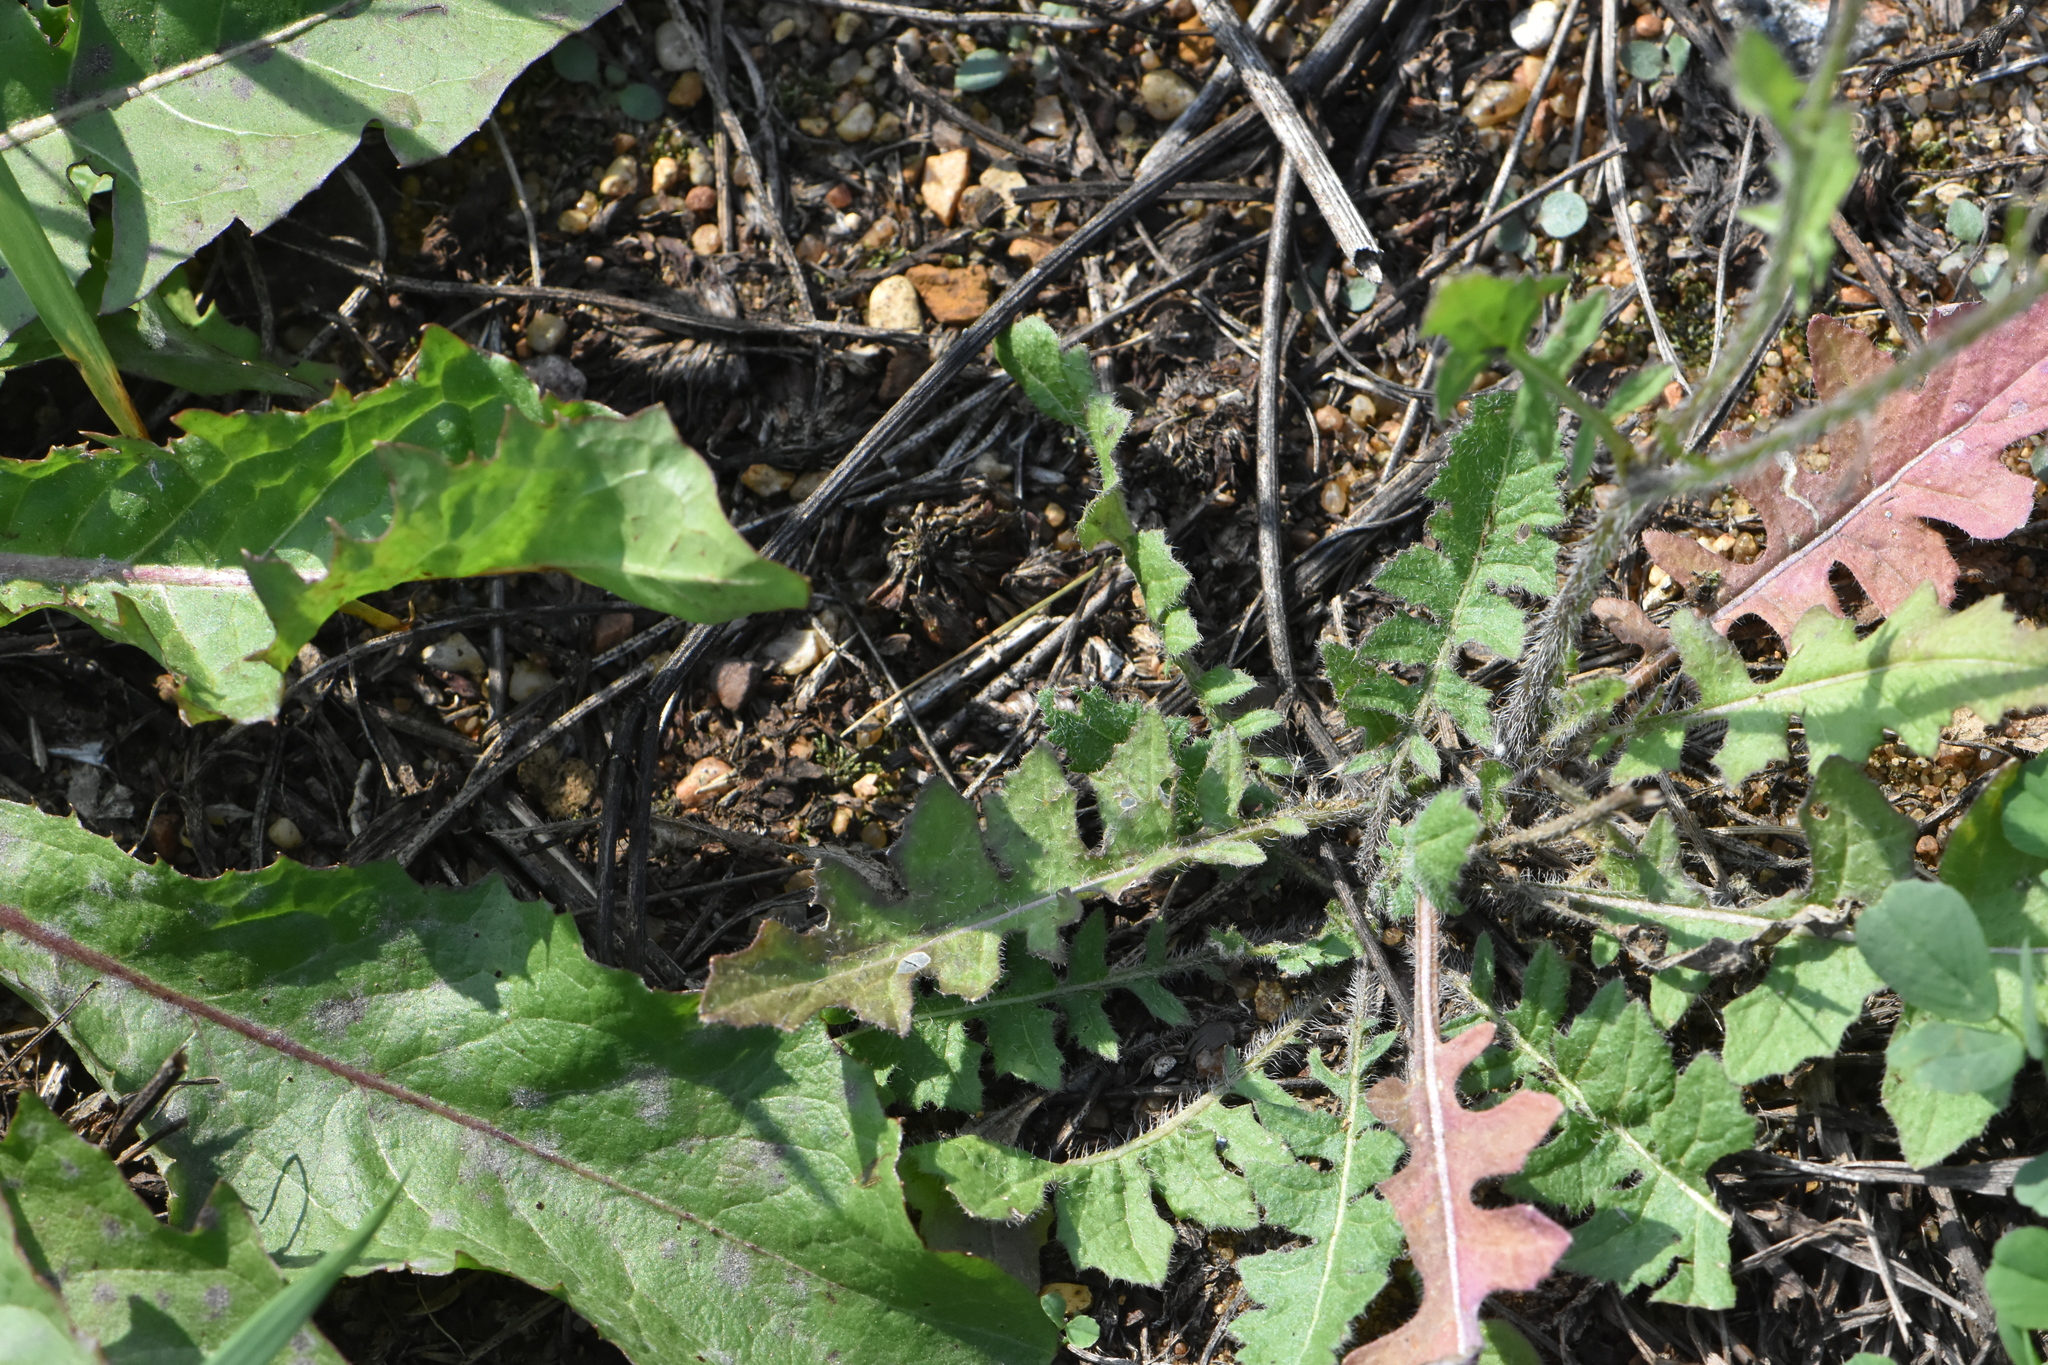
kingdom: Plantae
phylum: Tracheophyta
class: Magnoliopsida
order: Brassicales
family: Brassicaceae
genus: Sisymbrium
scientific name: Sisymbrium loeselii
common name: False london-rocket
